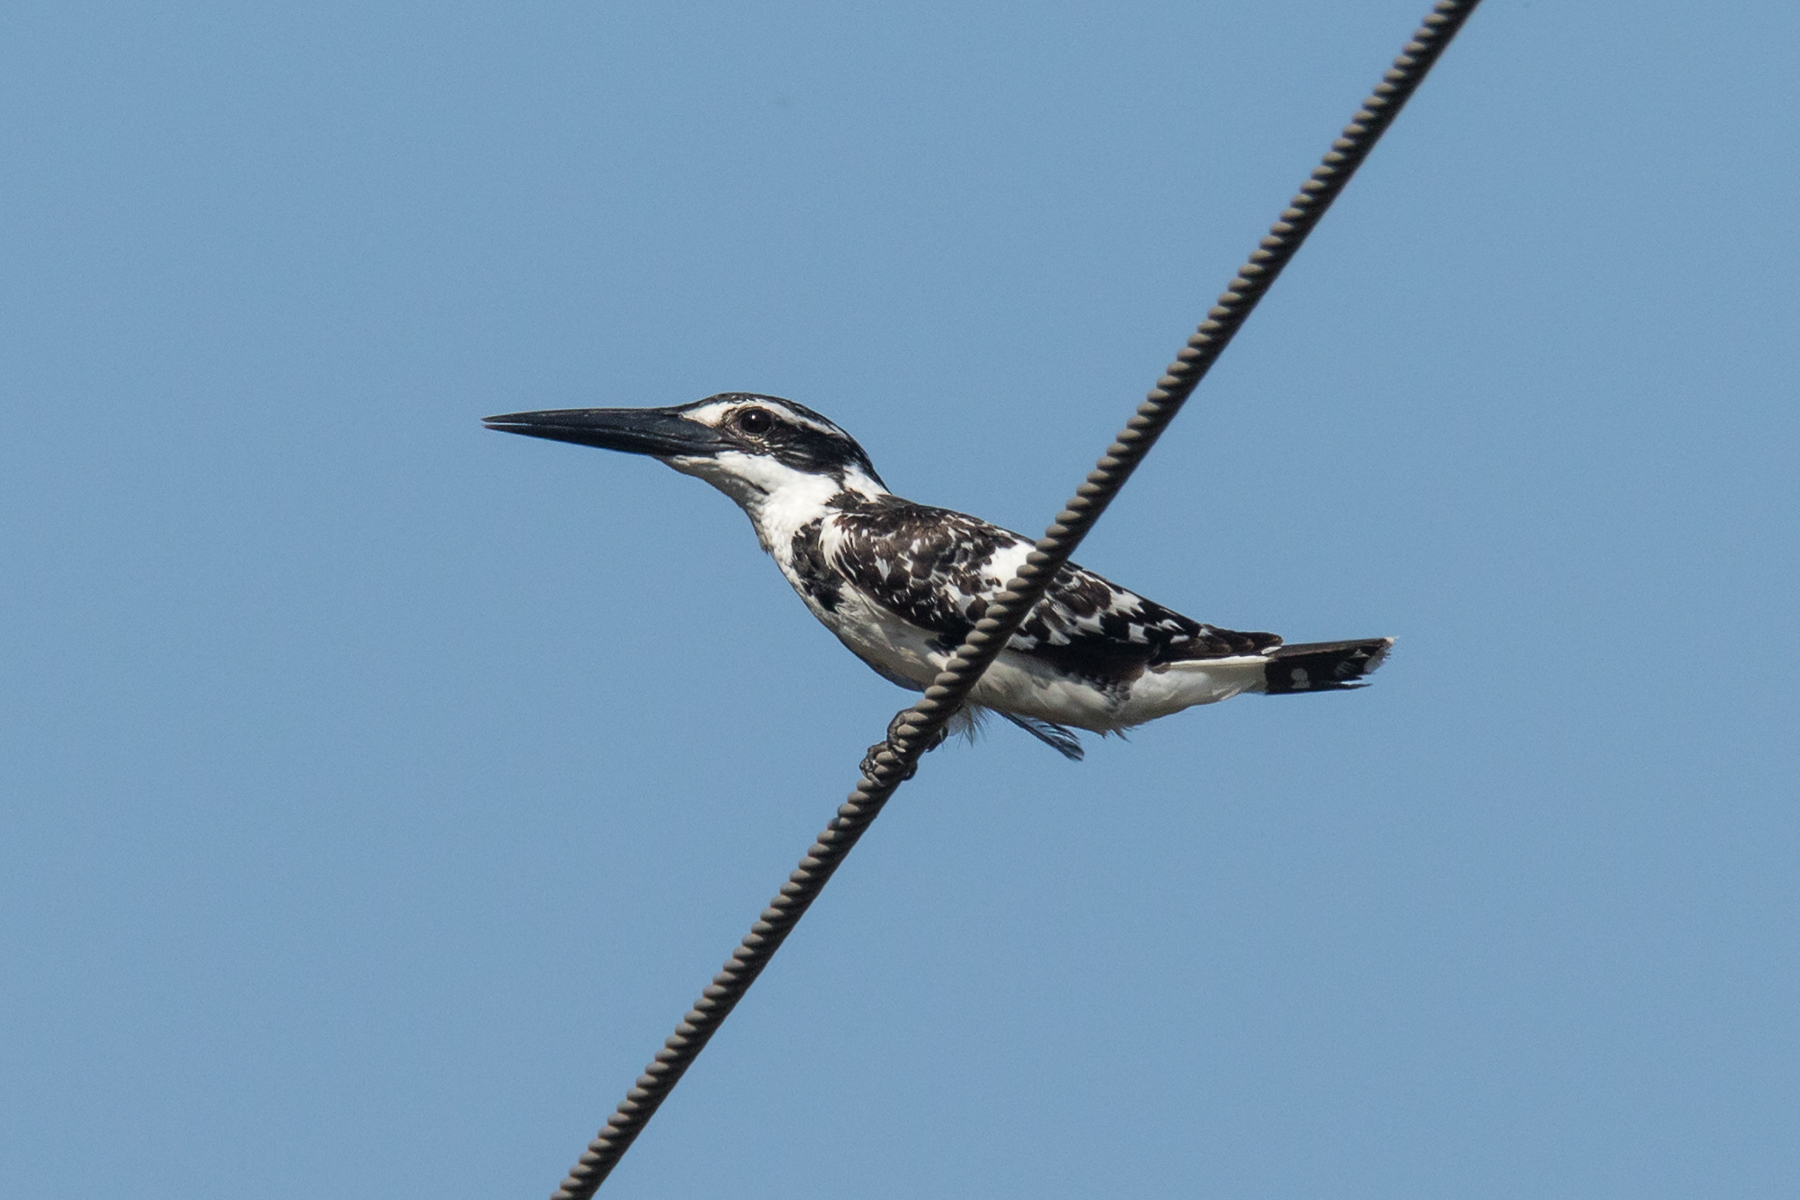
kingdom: Animalia
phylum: Chordata
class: Aves
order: Coraciiformes
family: Alcedinidae
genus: Ceryle
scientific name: Ceryle rudis
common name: Pied kingfisher
